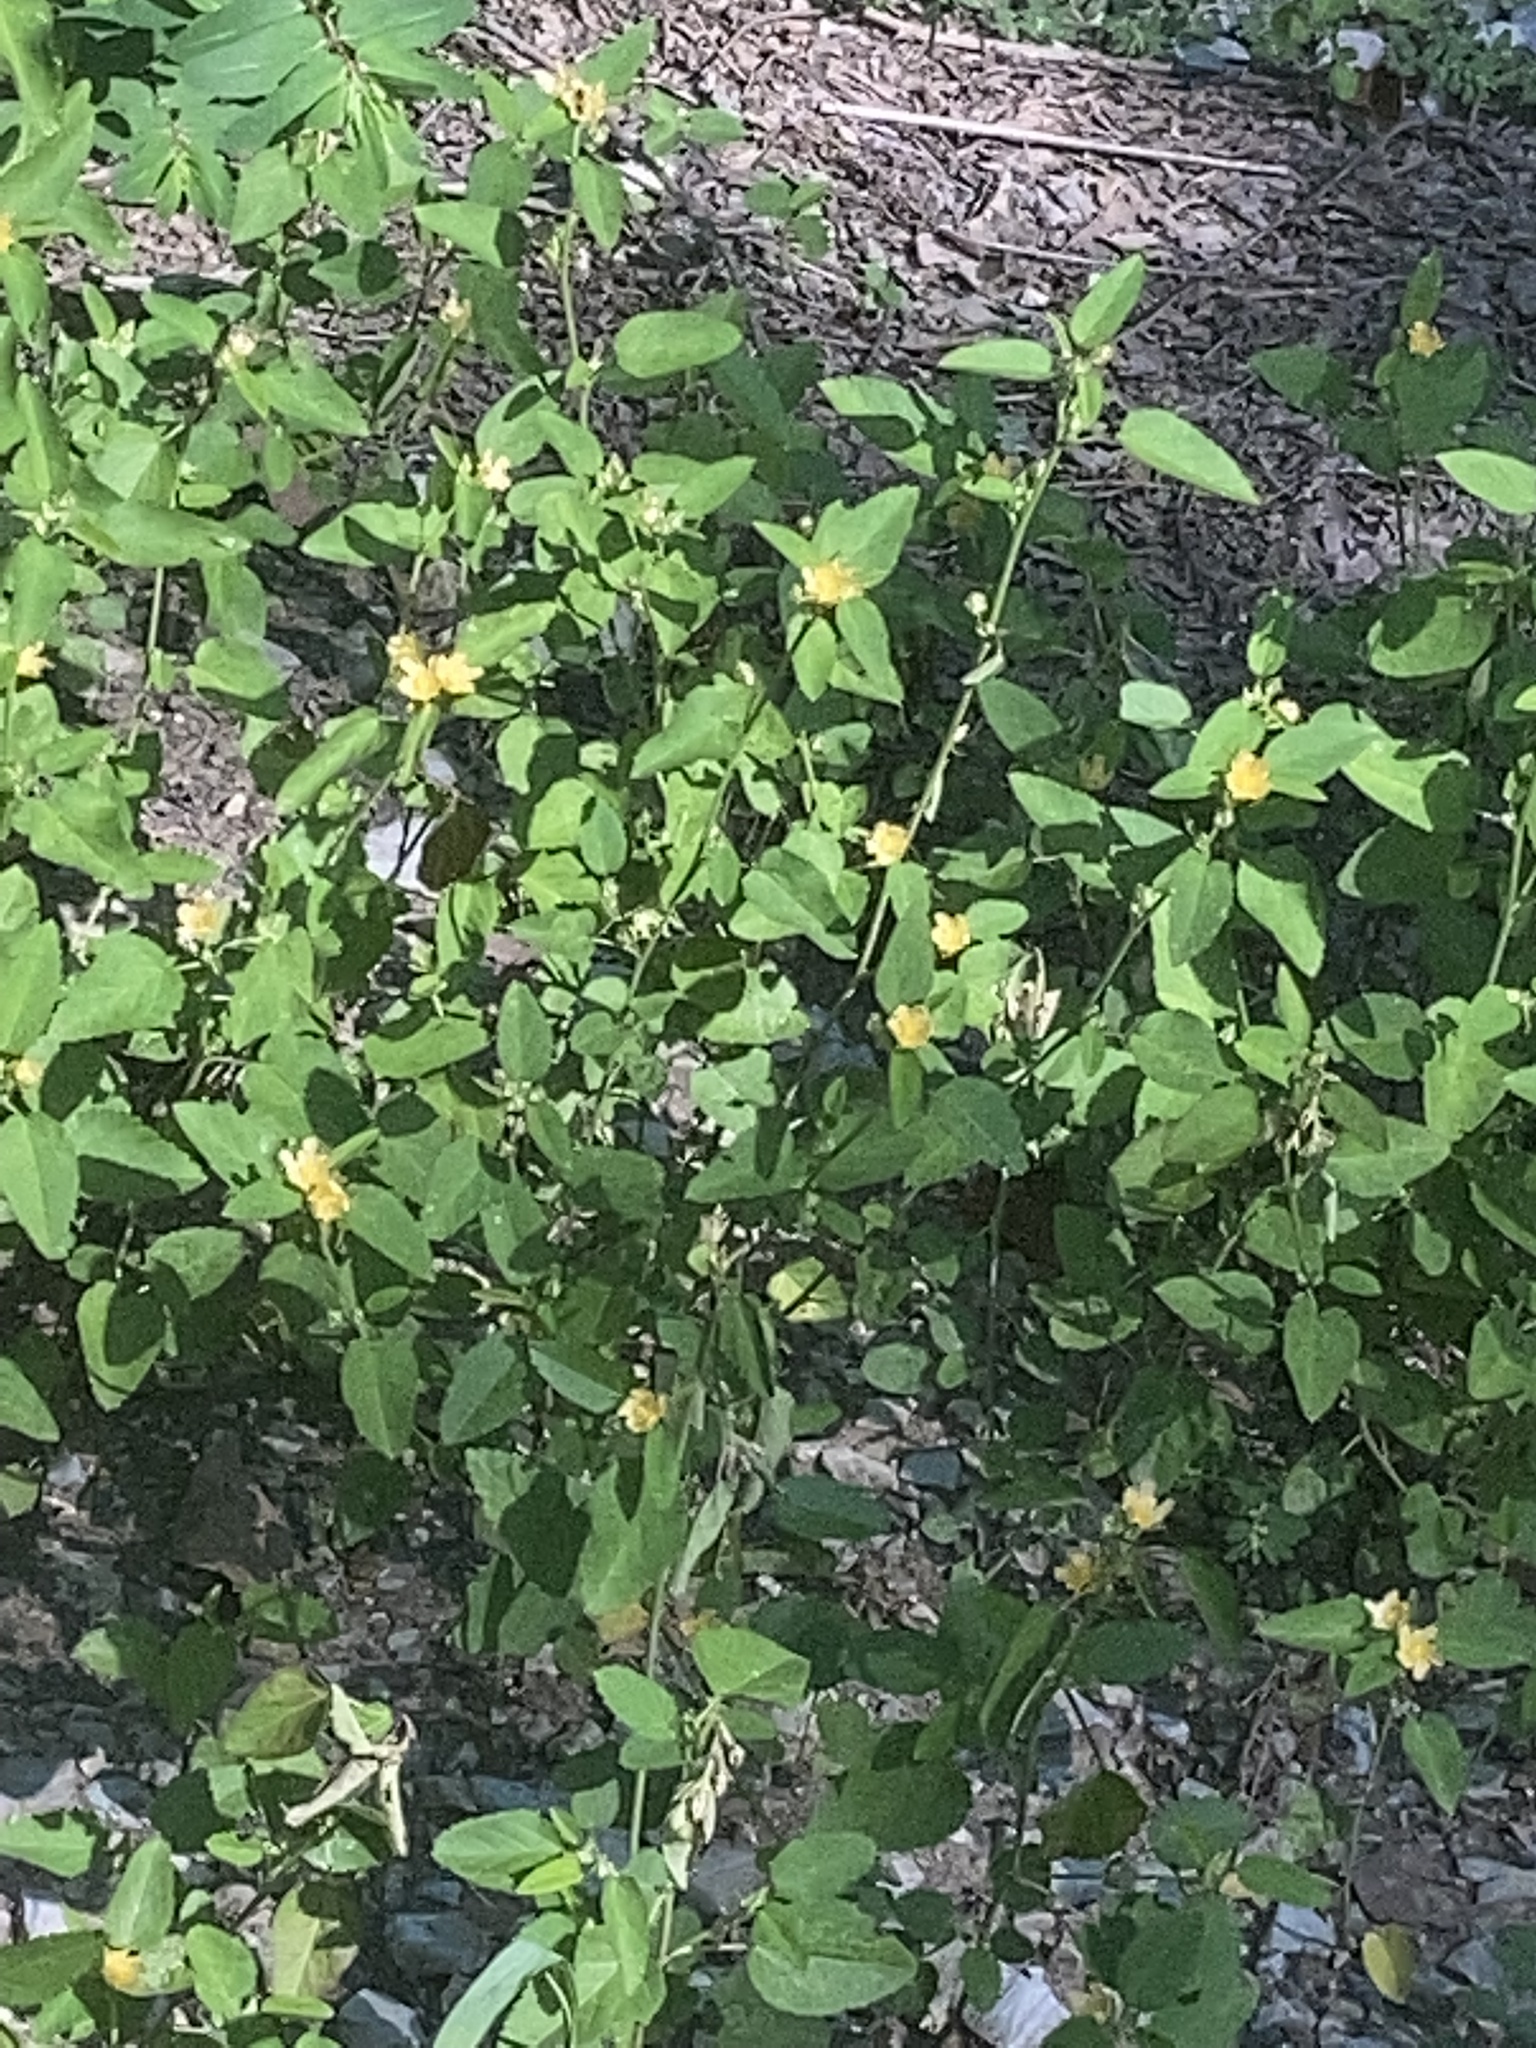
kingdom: Plantae
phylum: Tracheophyta
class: Magnoliopsida
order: Malvales
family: Malvaceae
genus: Sida
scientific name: Sida spinosa
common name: Prickly fanpetals
